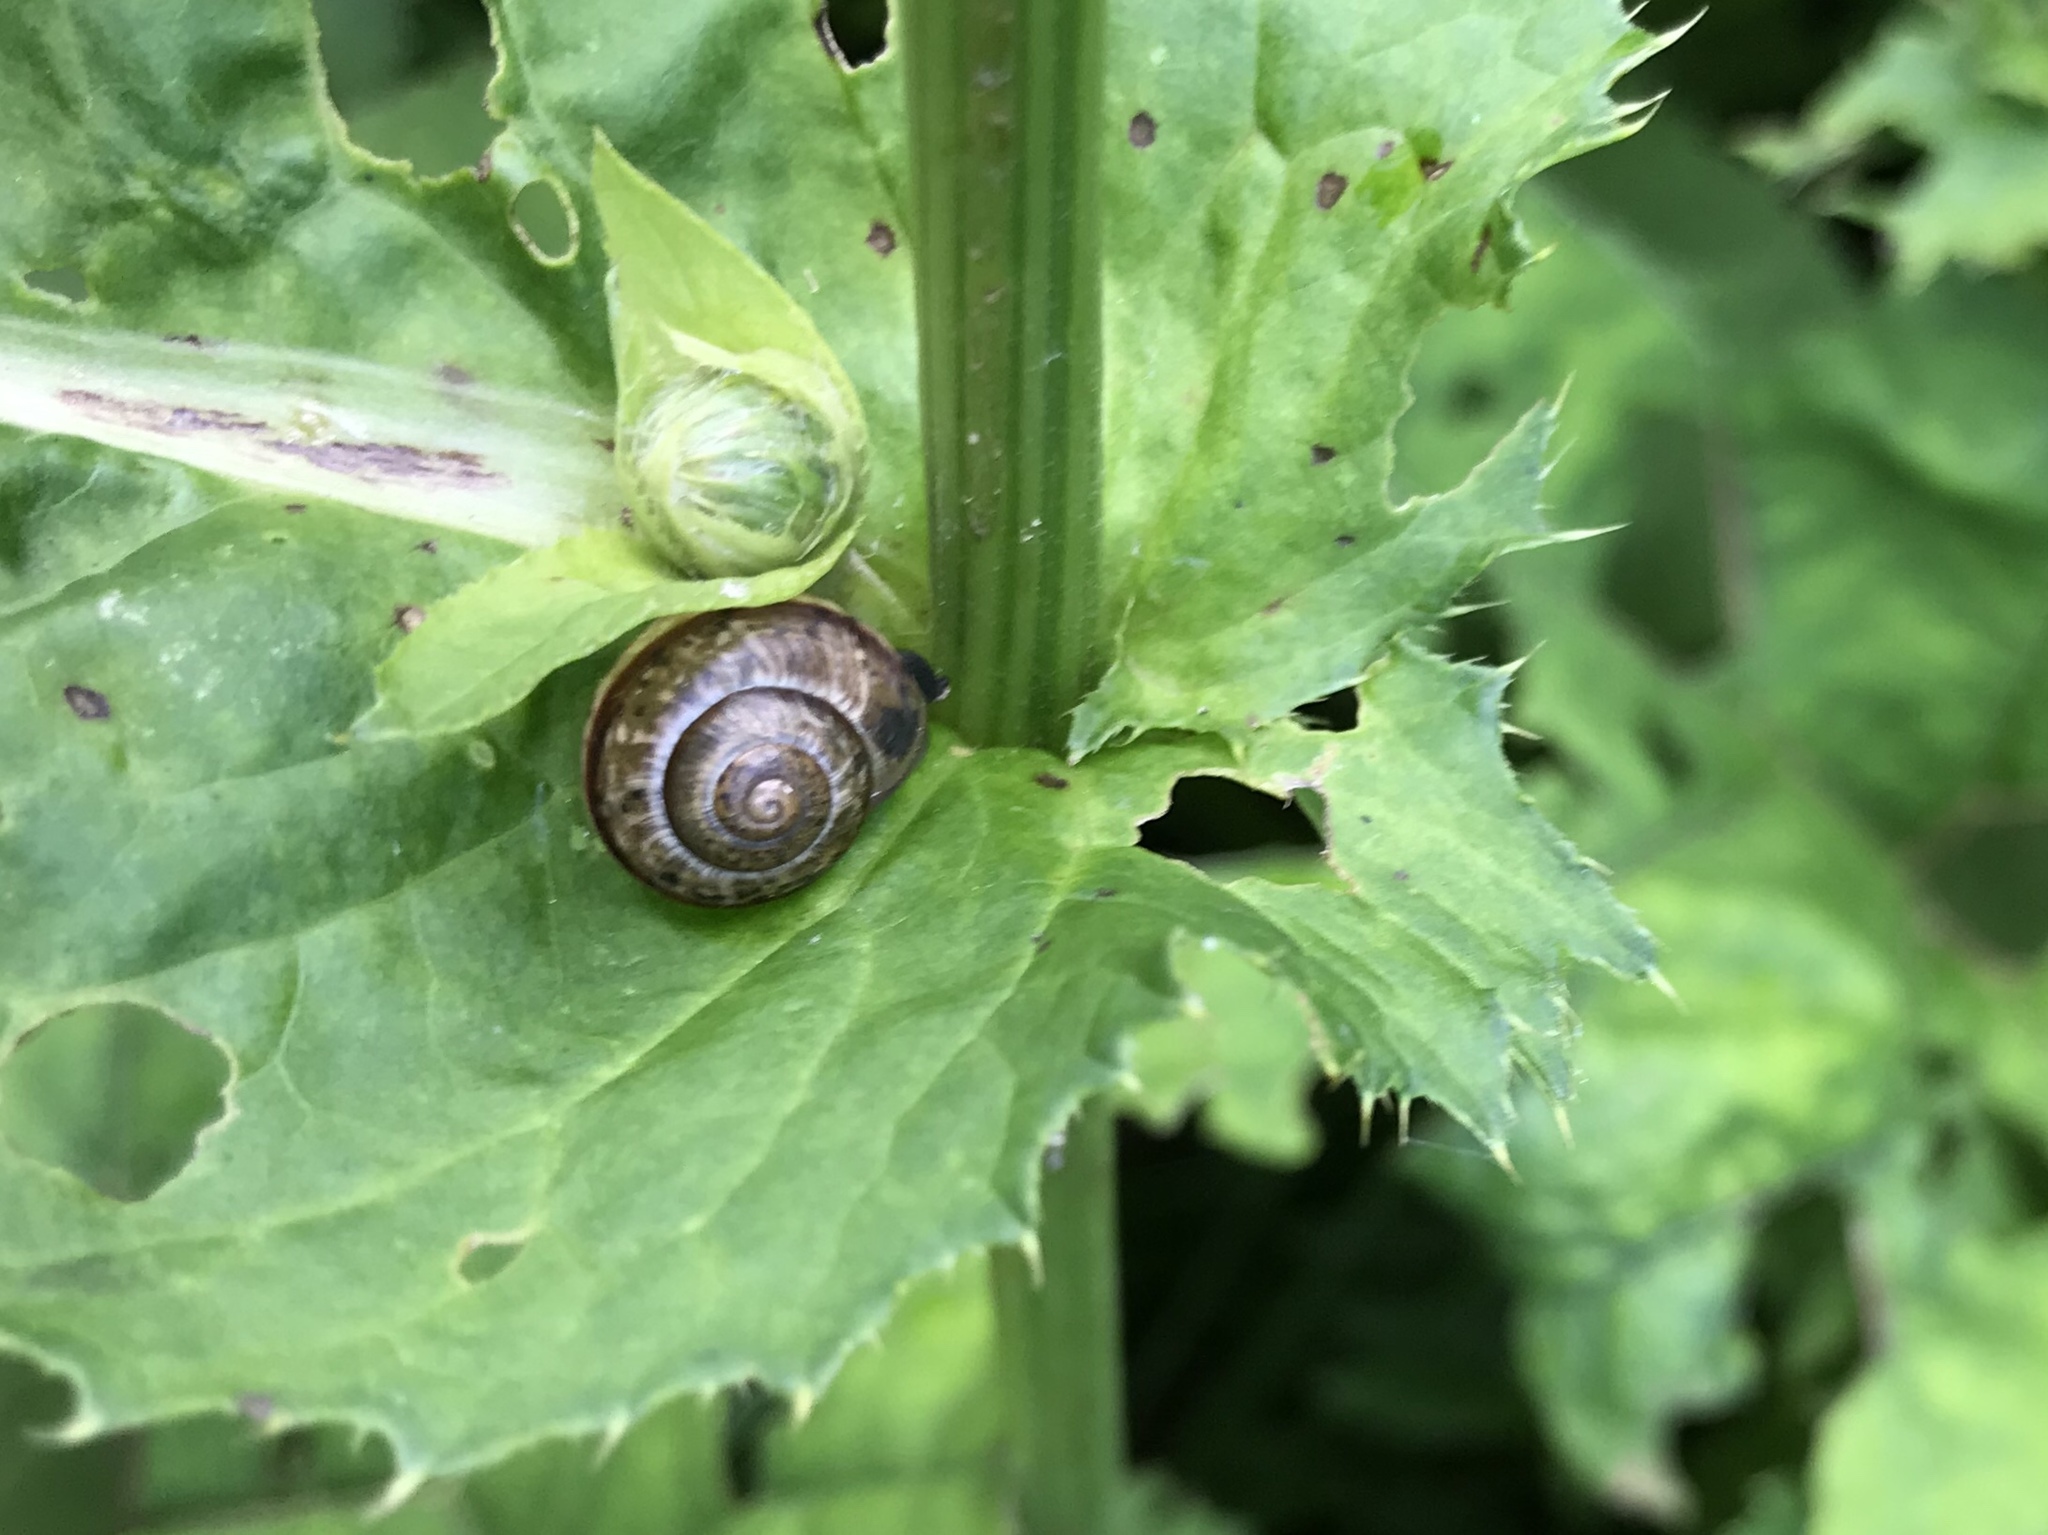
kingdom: Animalia
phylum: Mollusca
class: Gastropoda
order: Stylommatophora
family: Helicidae
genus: Arianta
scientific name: Arianta arbustorum
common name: Copse snail
